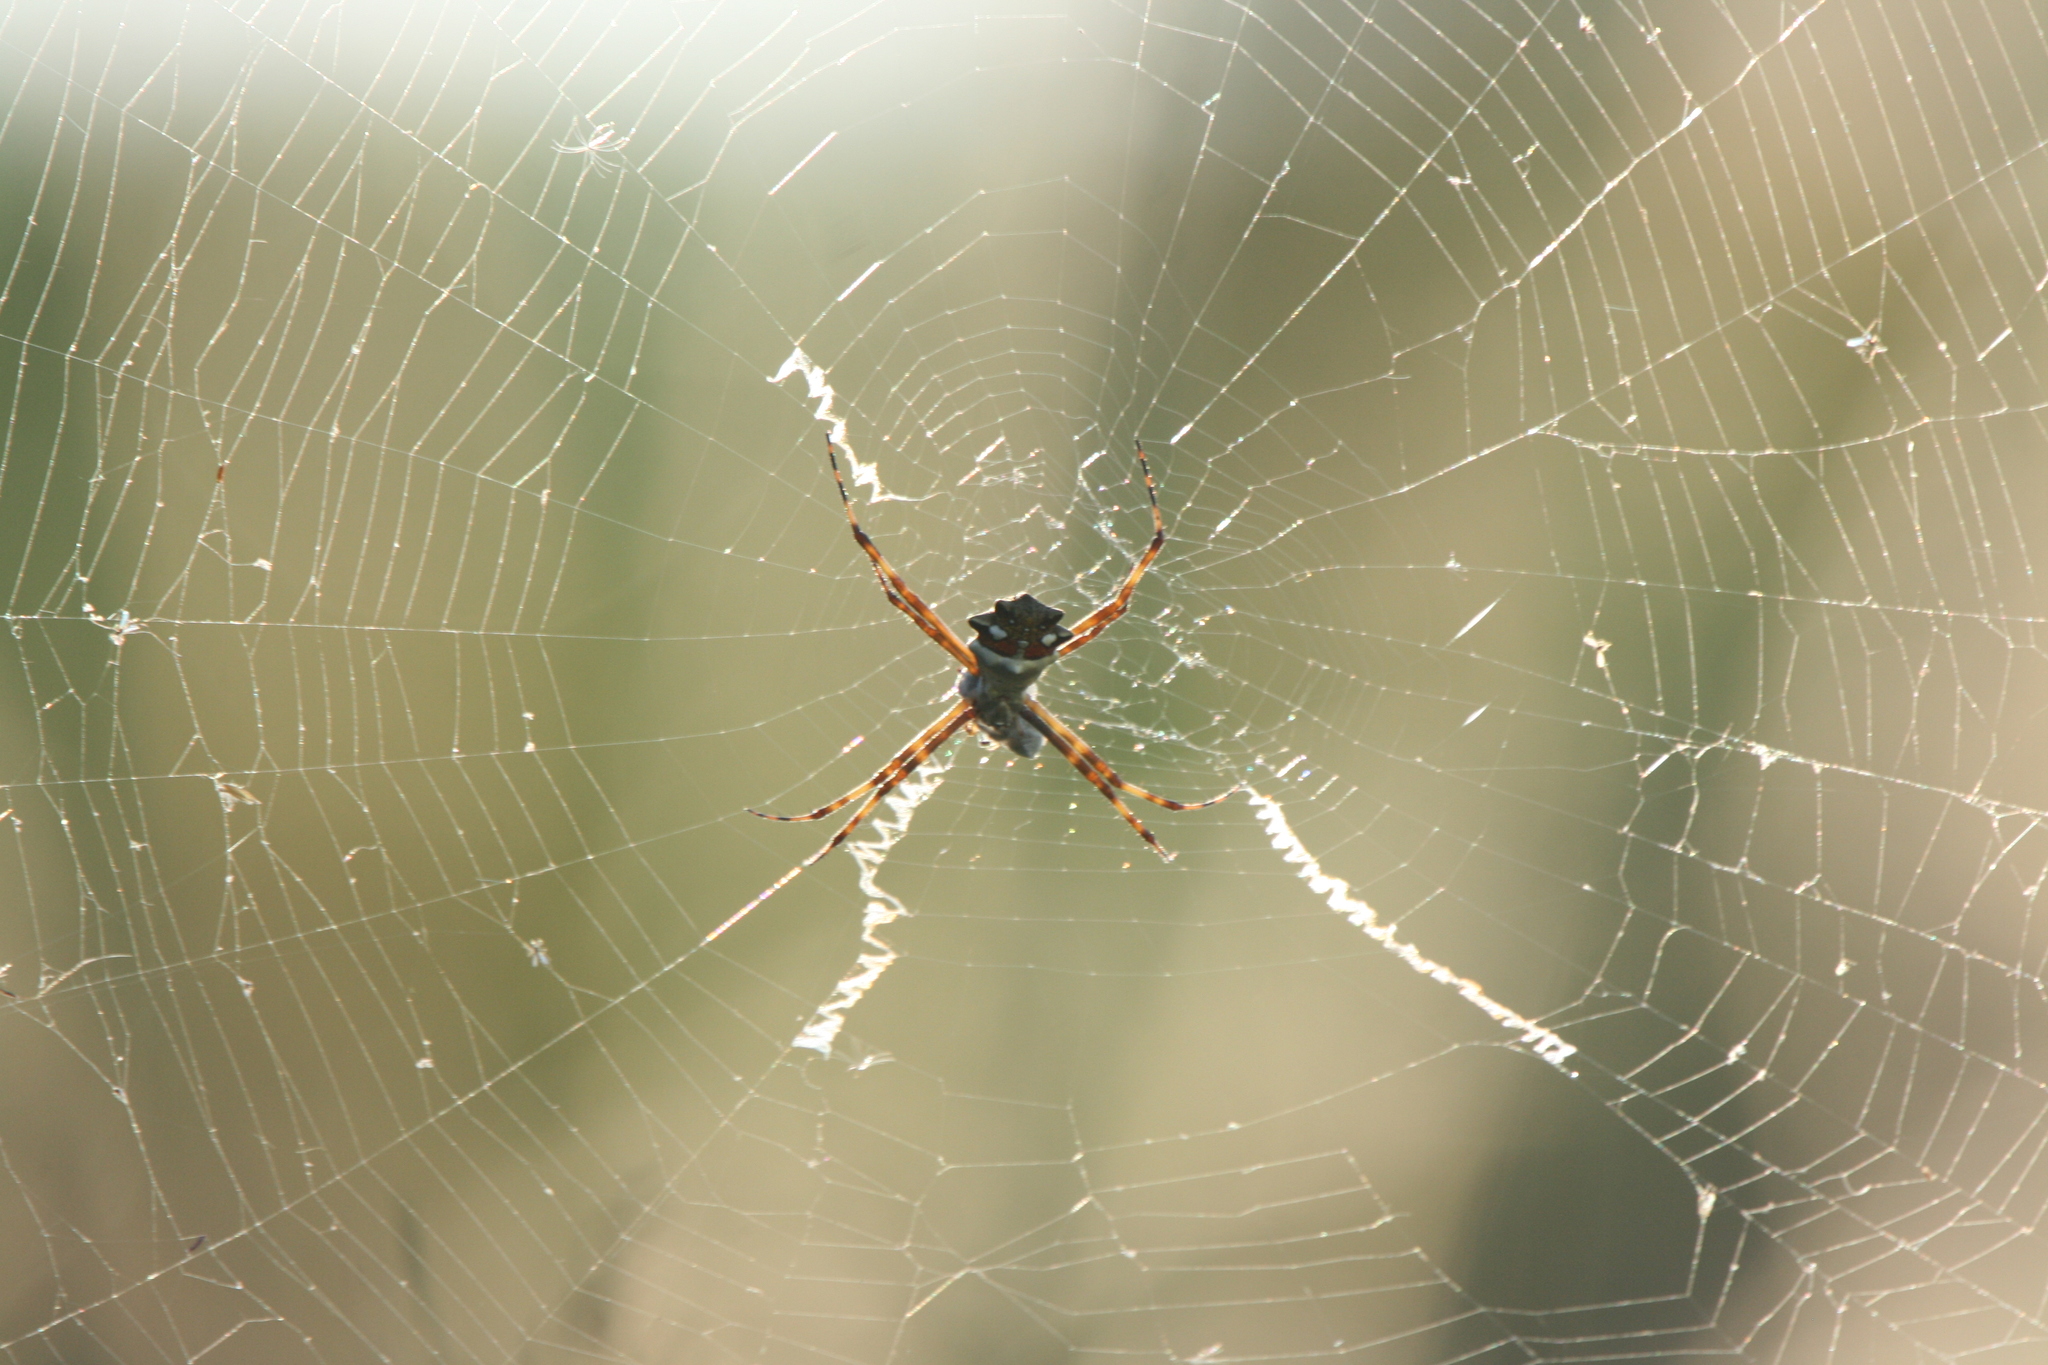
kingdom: Animalia
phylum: Arthropoda
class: Arachnida
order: Araneae
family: Araneidae
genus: Argiope
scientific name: Argiope argentata
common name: Orb weavers
